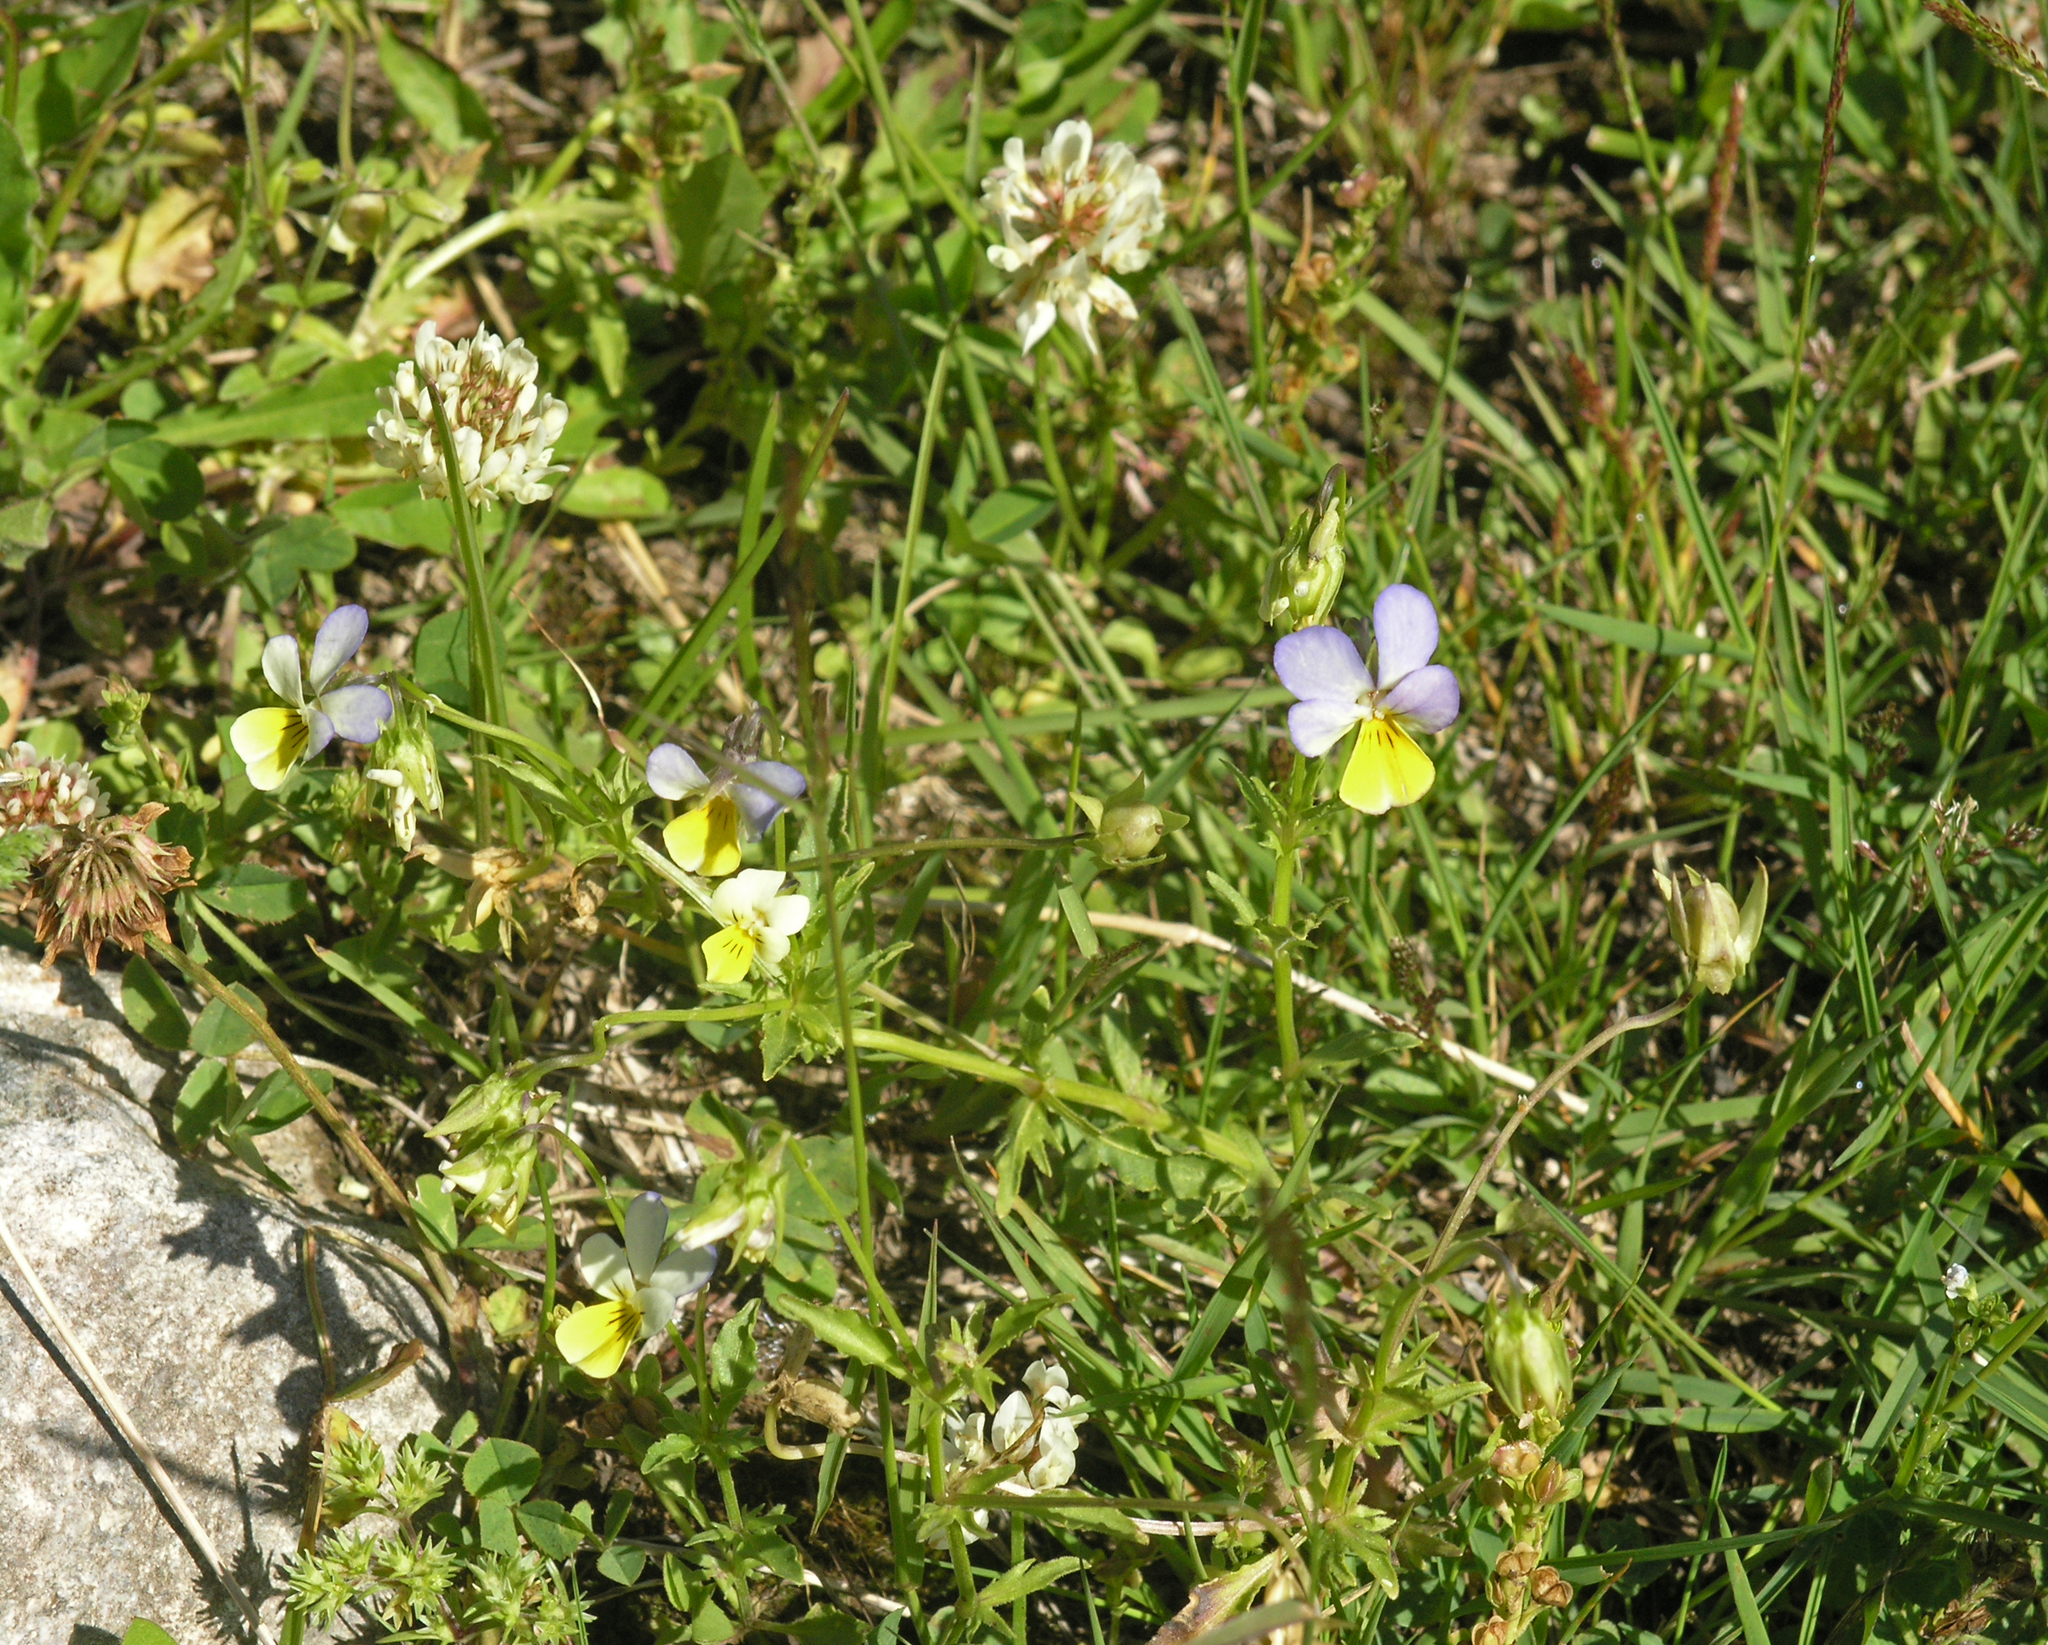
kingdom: Plantae
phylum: Tracheophyta
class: Magnoliopsida
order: Malpighiales
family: Violaceae
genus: Viola
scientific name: Viola tricolor
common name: Pansy
